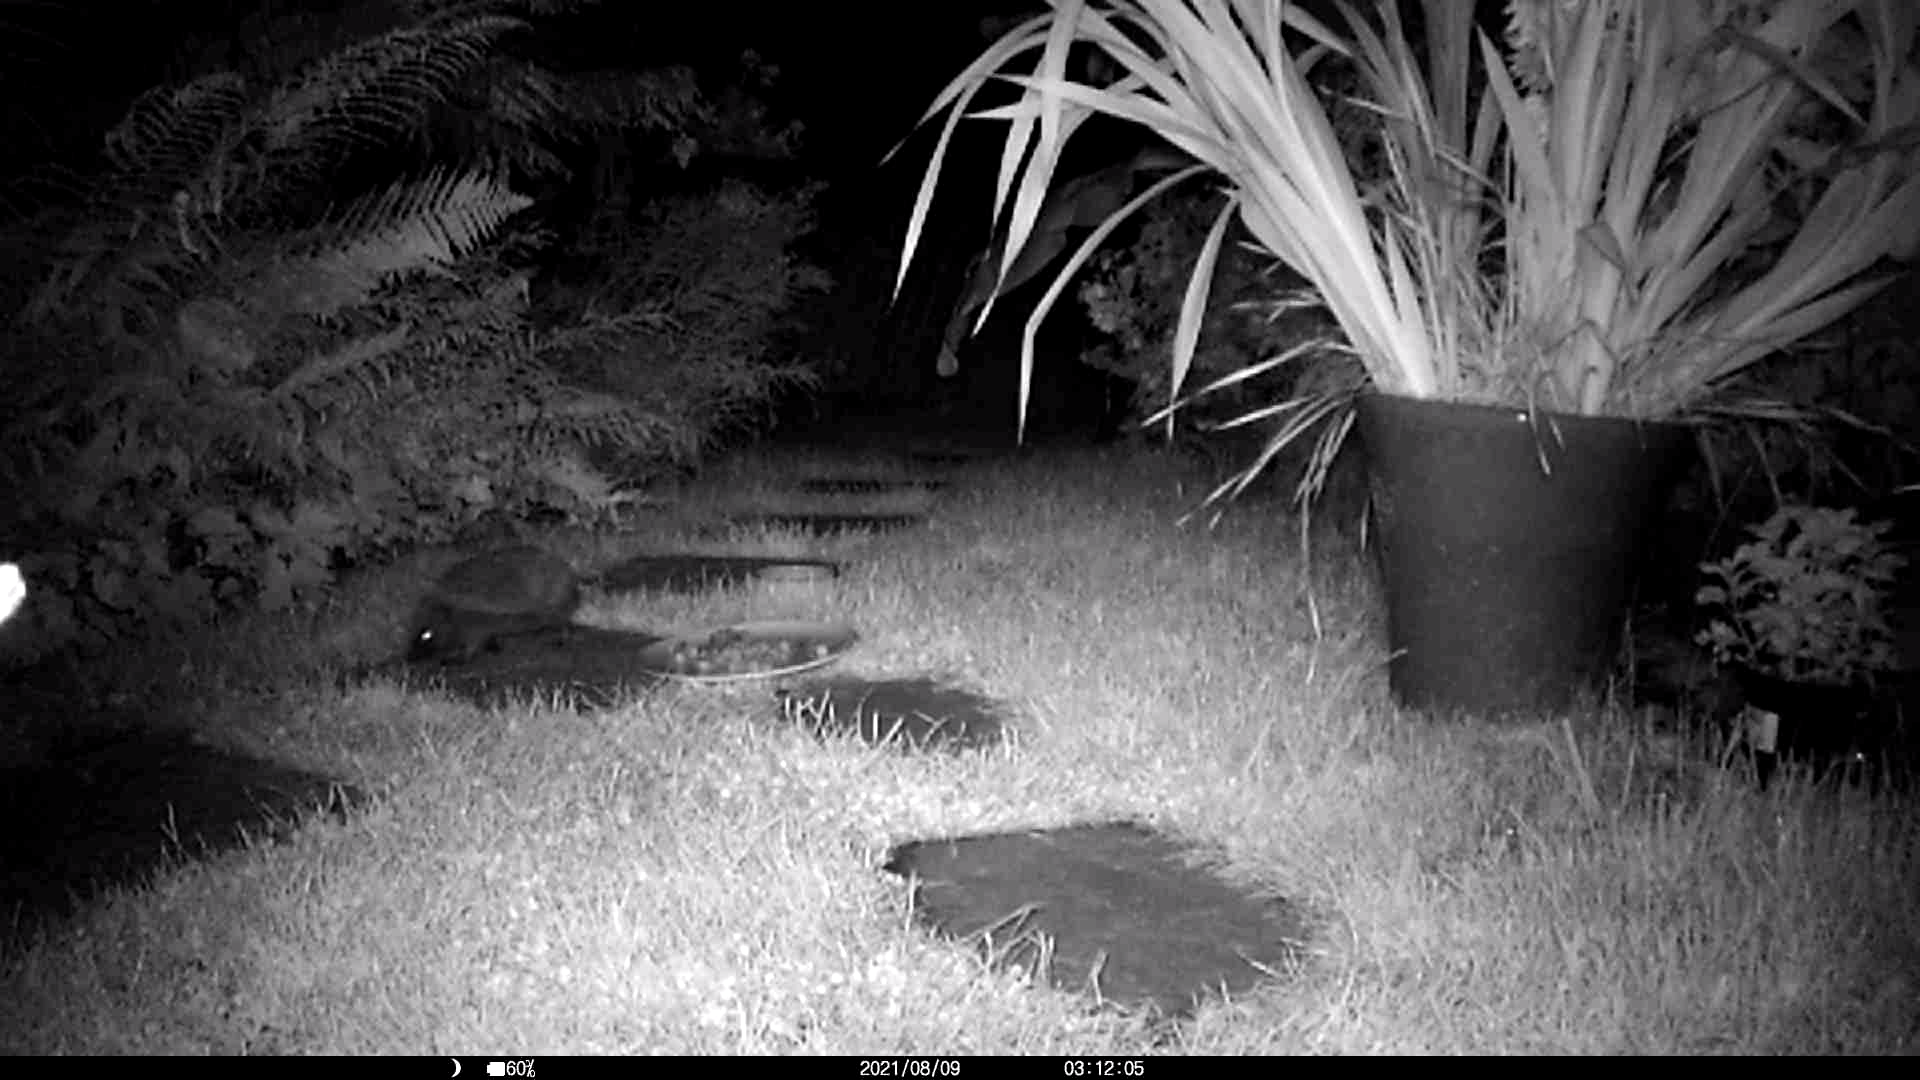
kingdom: Animalia
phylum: Chordata
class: Mammalia
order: Erinaceomorpha
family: Erinaceidae
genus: Erinaceus
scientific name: Erinaceus europaeus
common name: West european hedgehog
